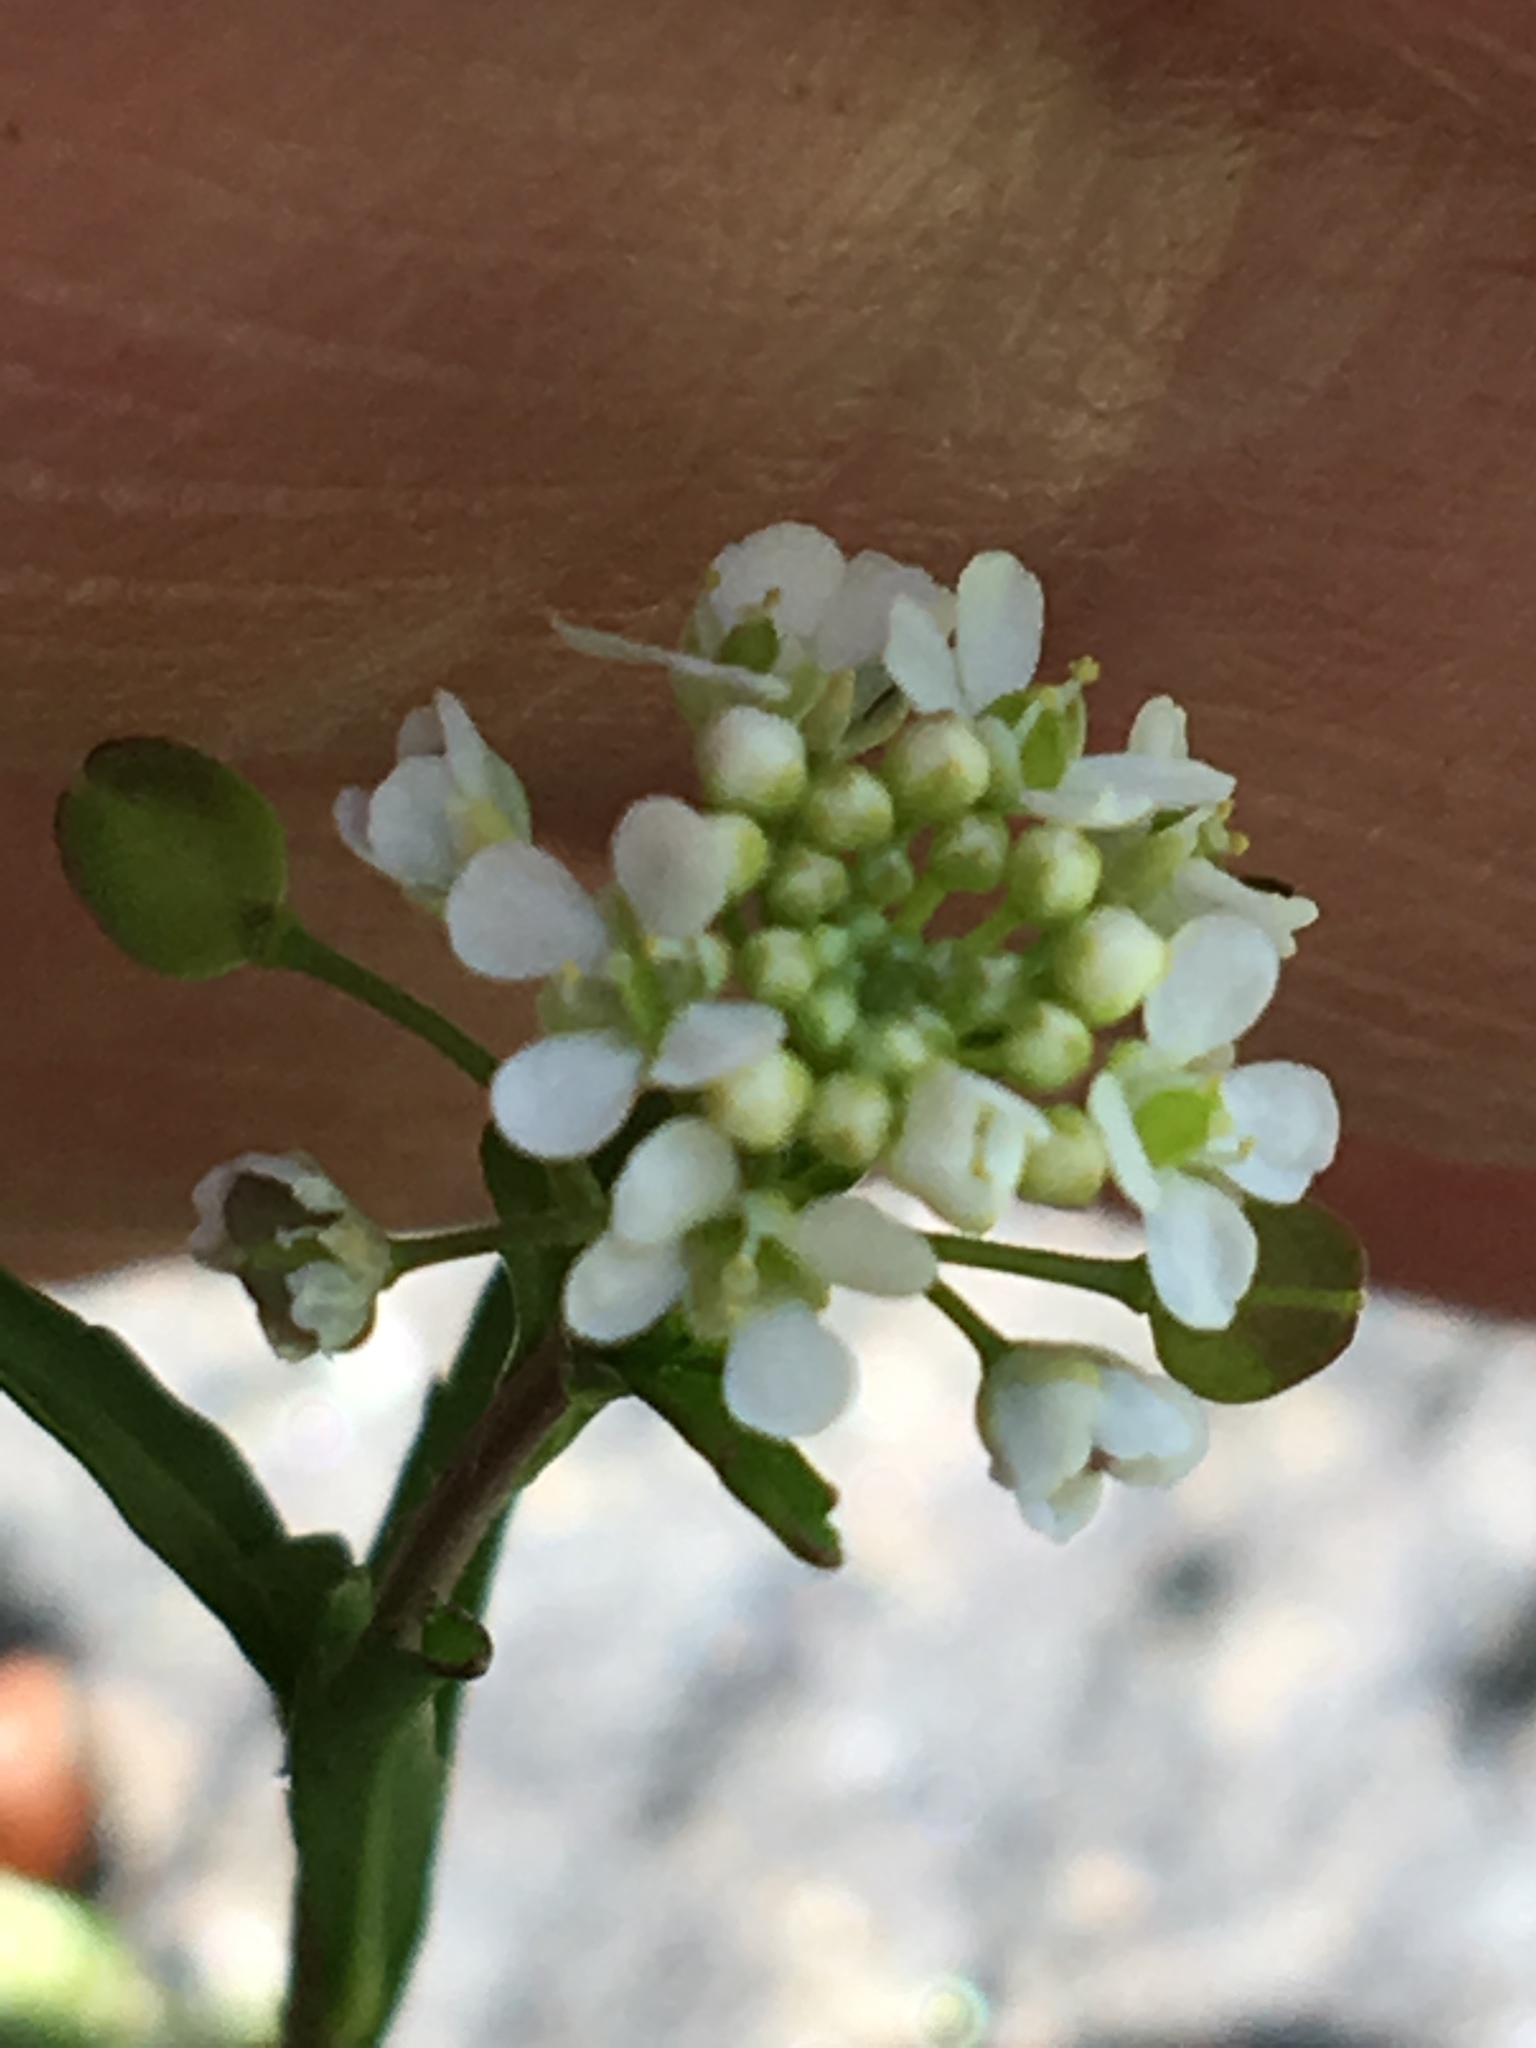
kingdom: Plantae
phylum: Tracheophyta
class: Magnoliopsida
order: Brassicales
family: Brassicaceae
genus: Lepidium
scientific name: Lepidium virginicum
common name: Least pepperwort
